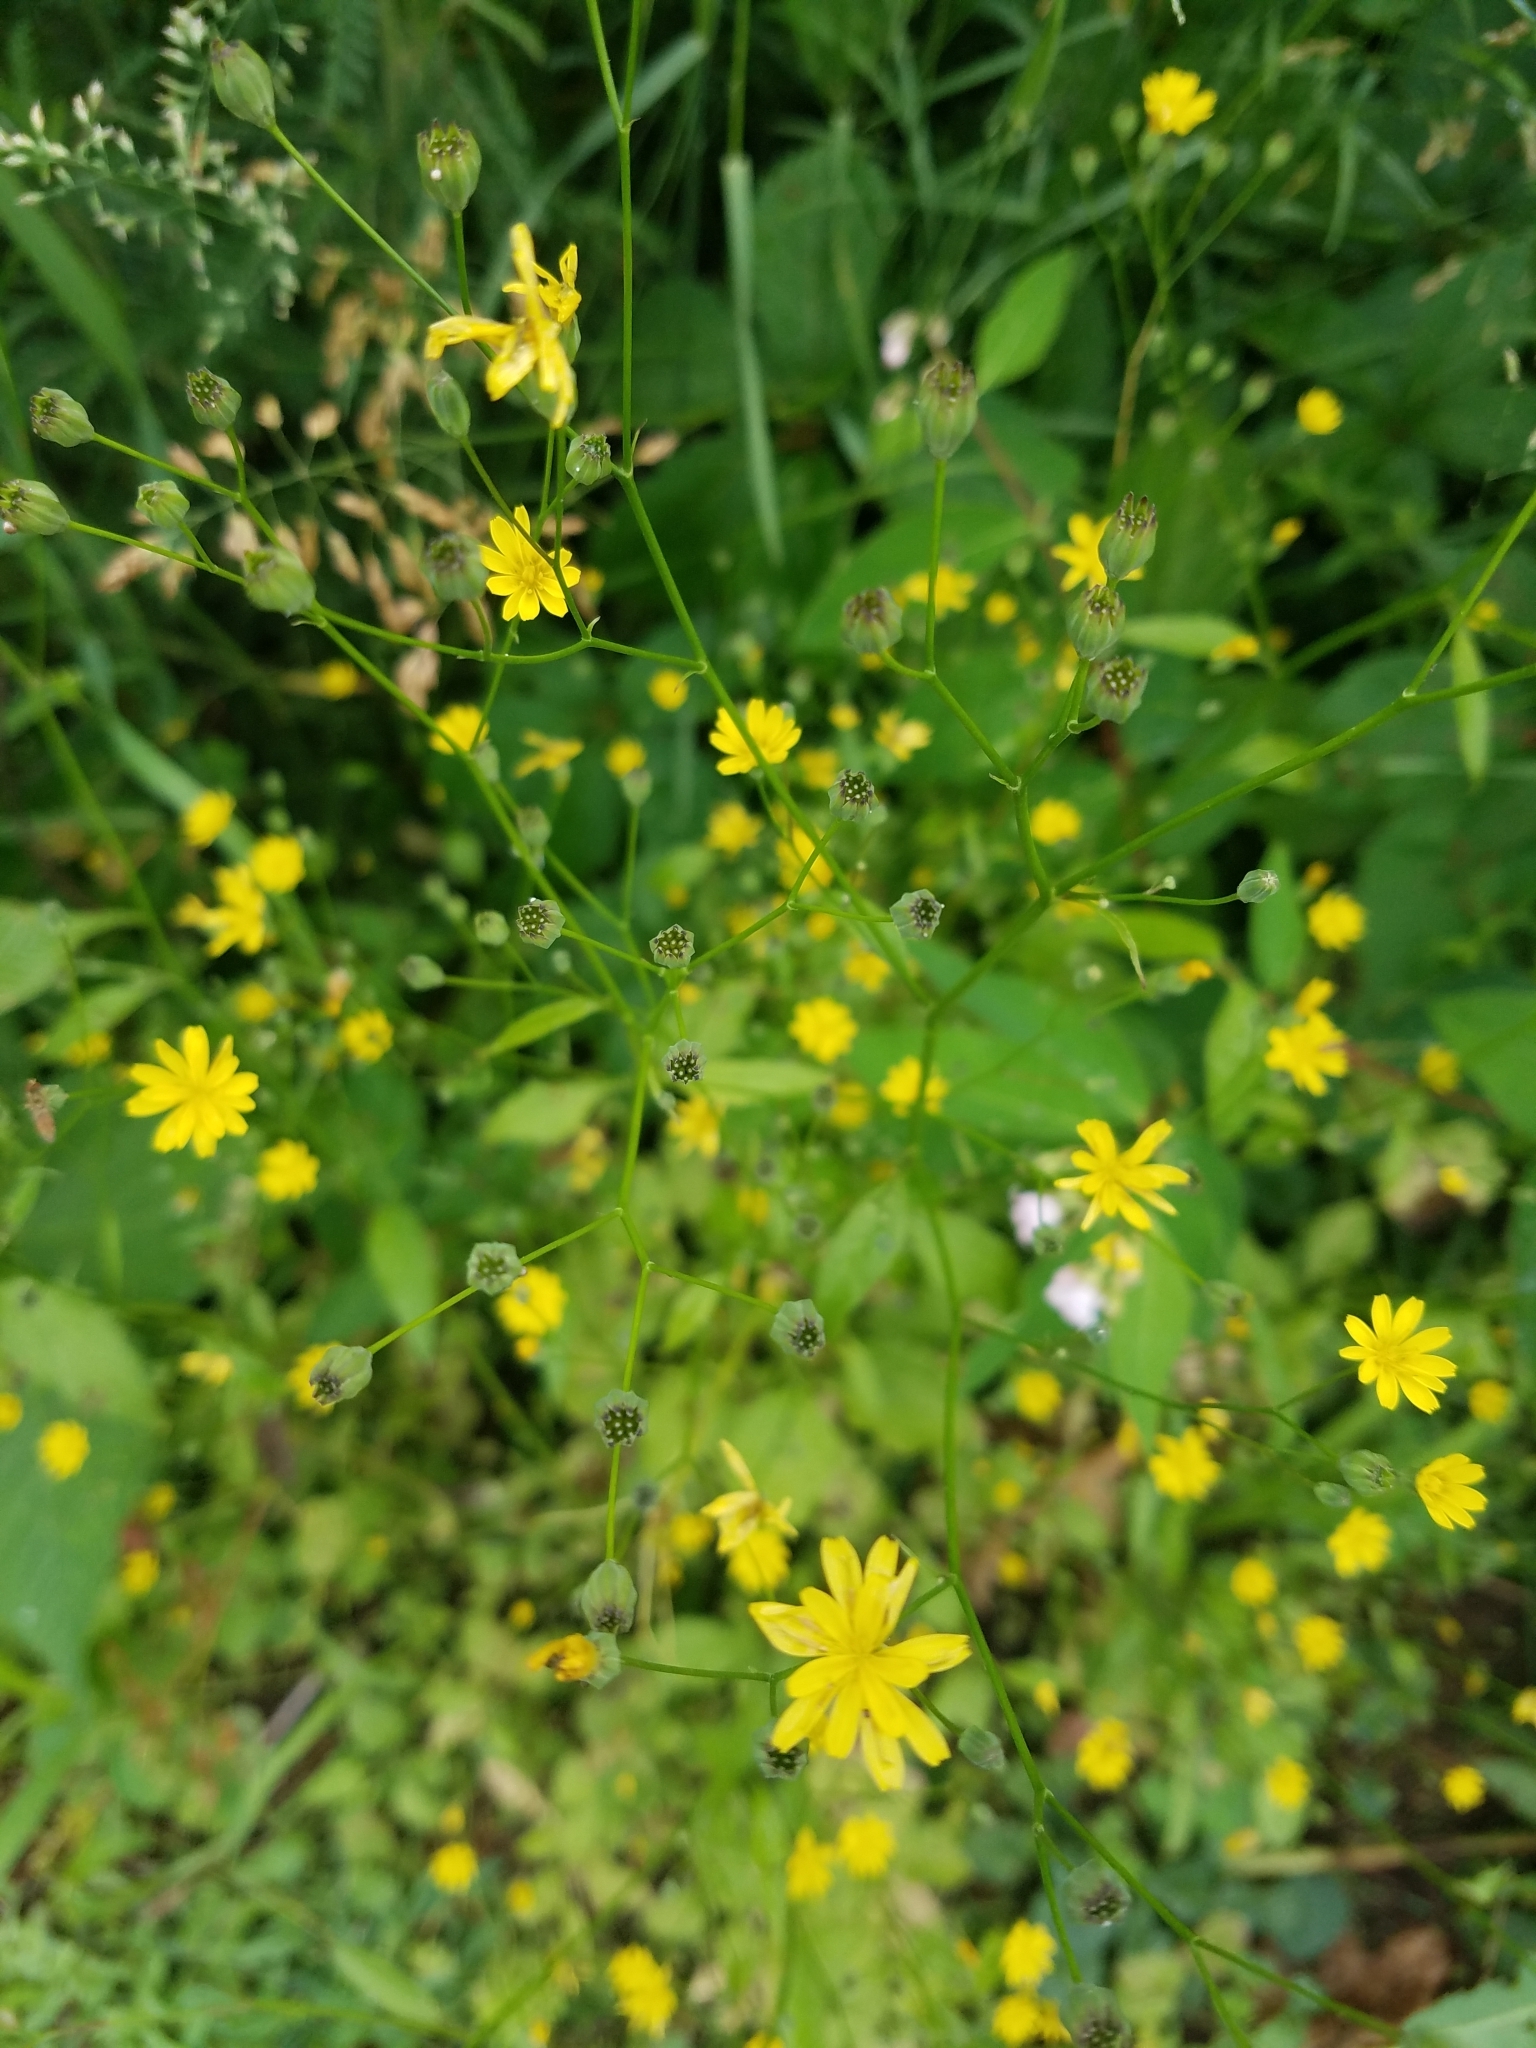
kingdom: Plantae
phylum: Tracheophyta
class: Magnoliopsida
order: Asterales
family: Asteraceae
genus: Lapsana
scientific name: Lapsana communis
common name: Nipplewort
